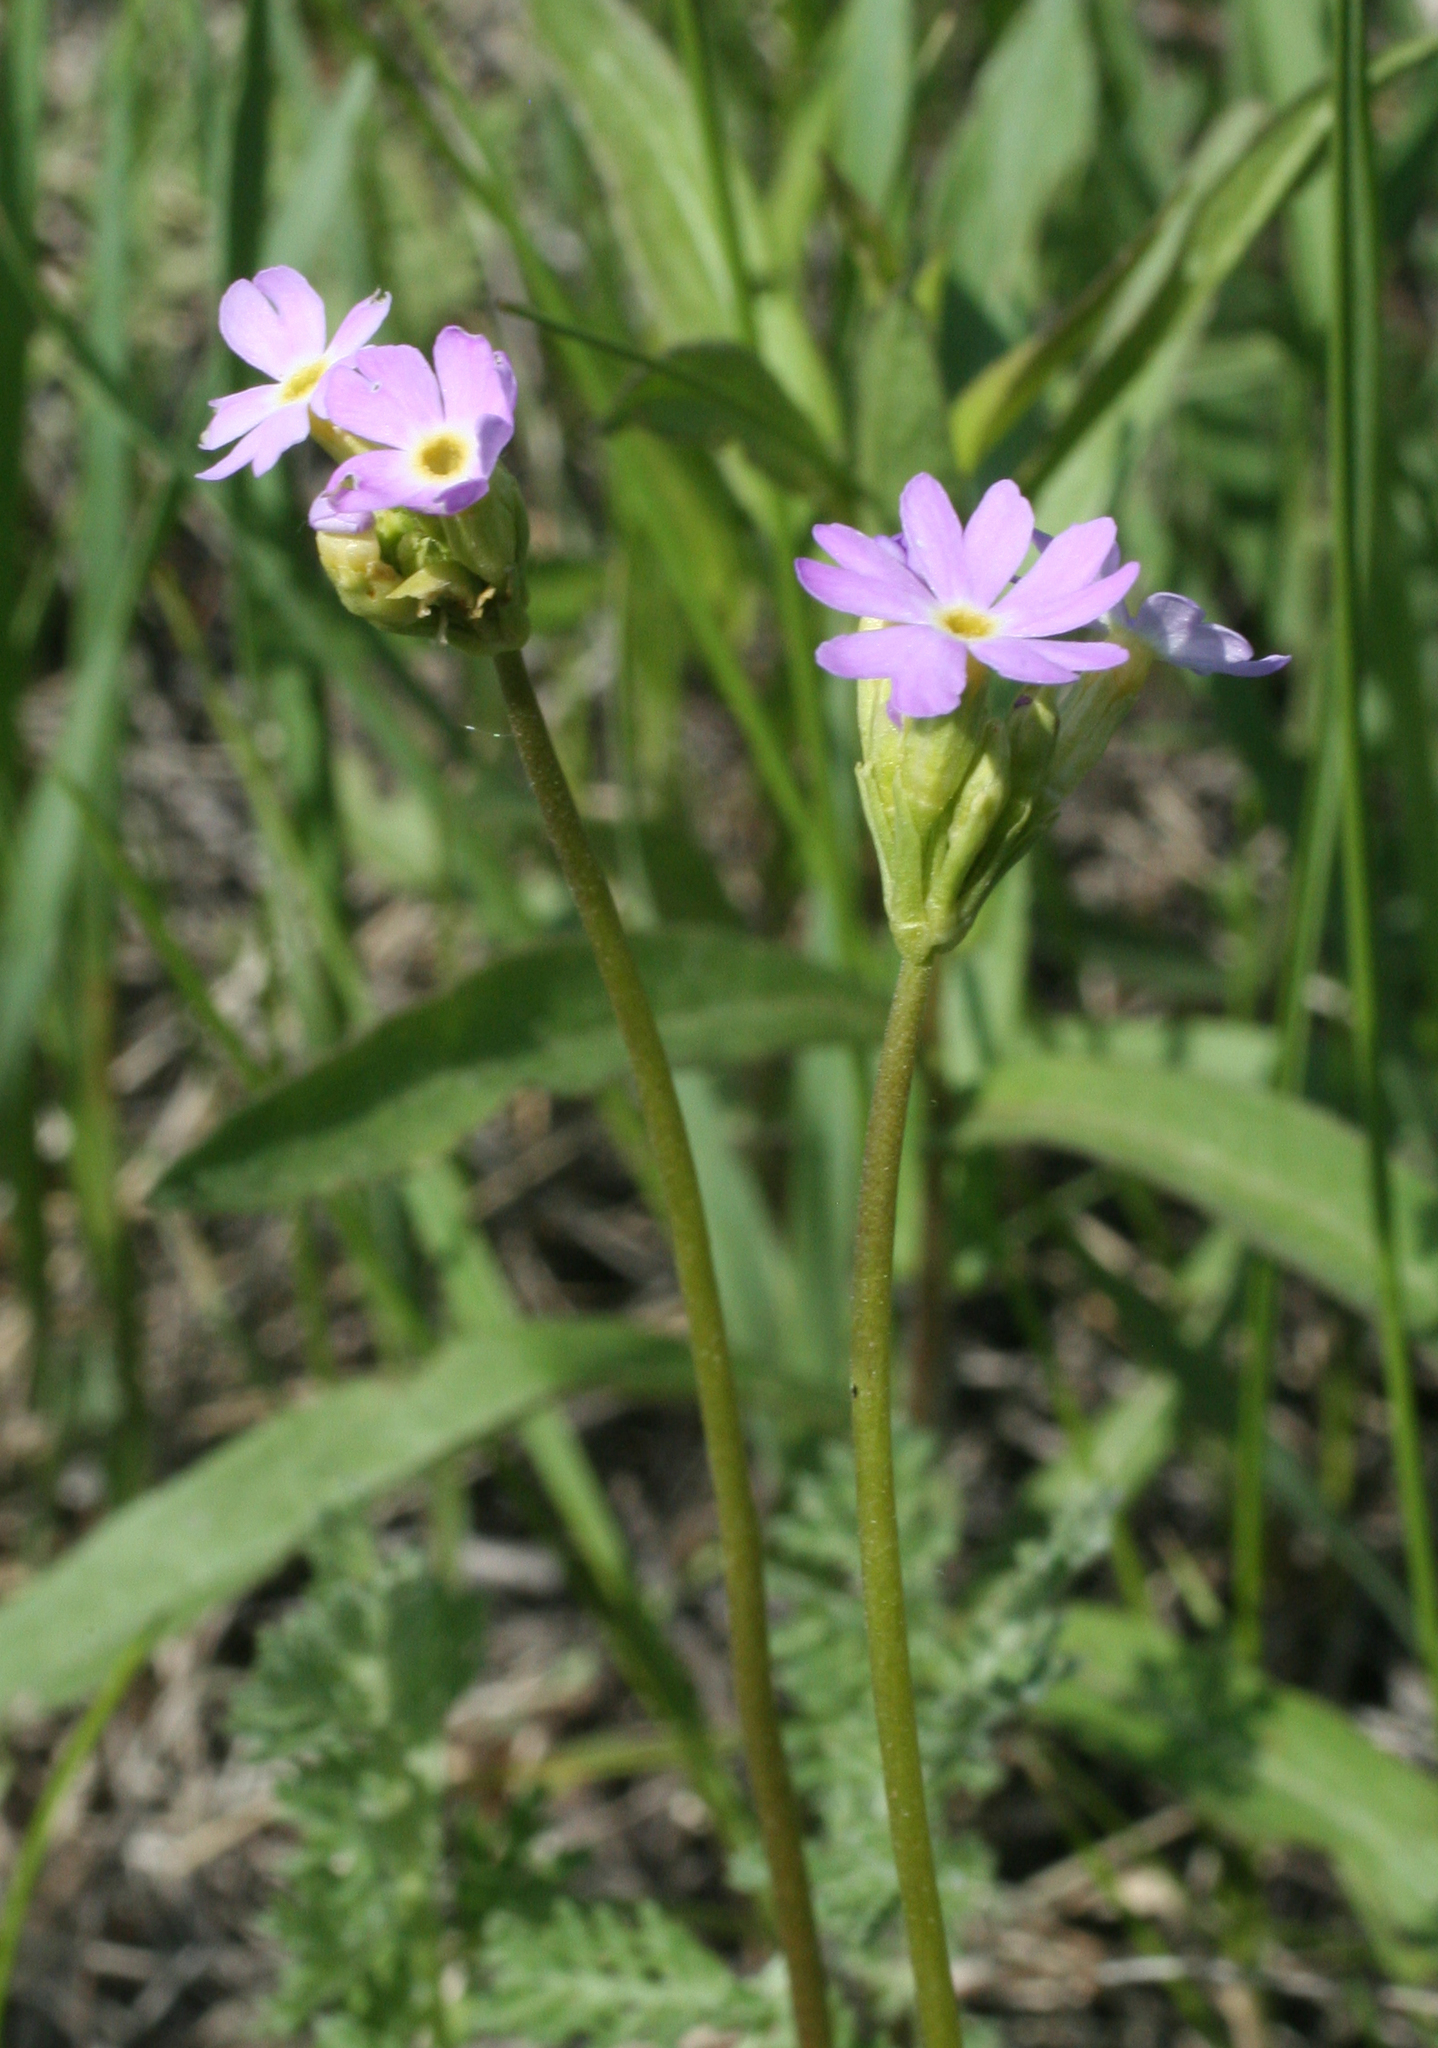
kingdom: Plantae
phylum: Tracheophyta
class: Magnoliopsida
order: Ericales
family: Primulaceae
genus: Primula
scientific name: Primula longiscapa
